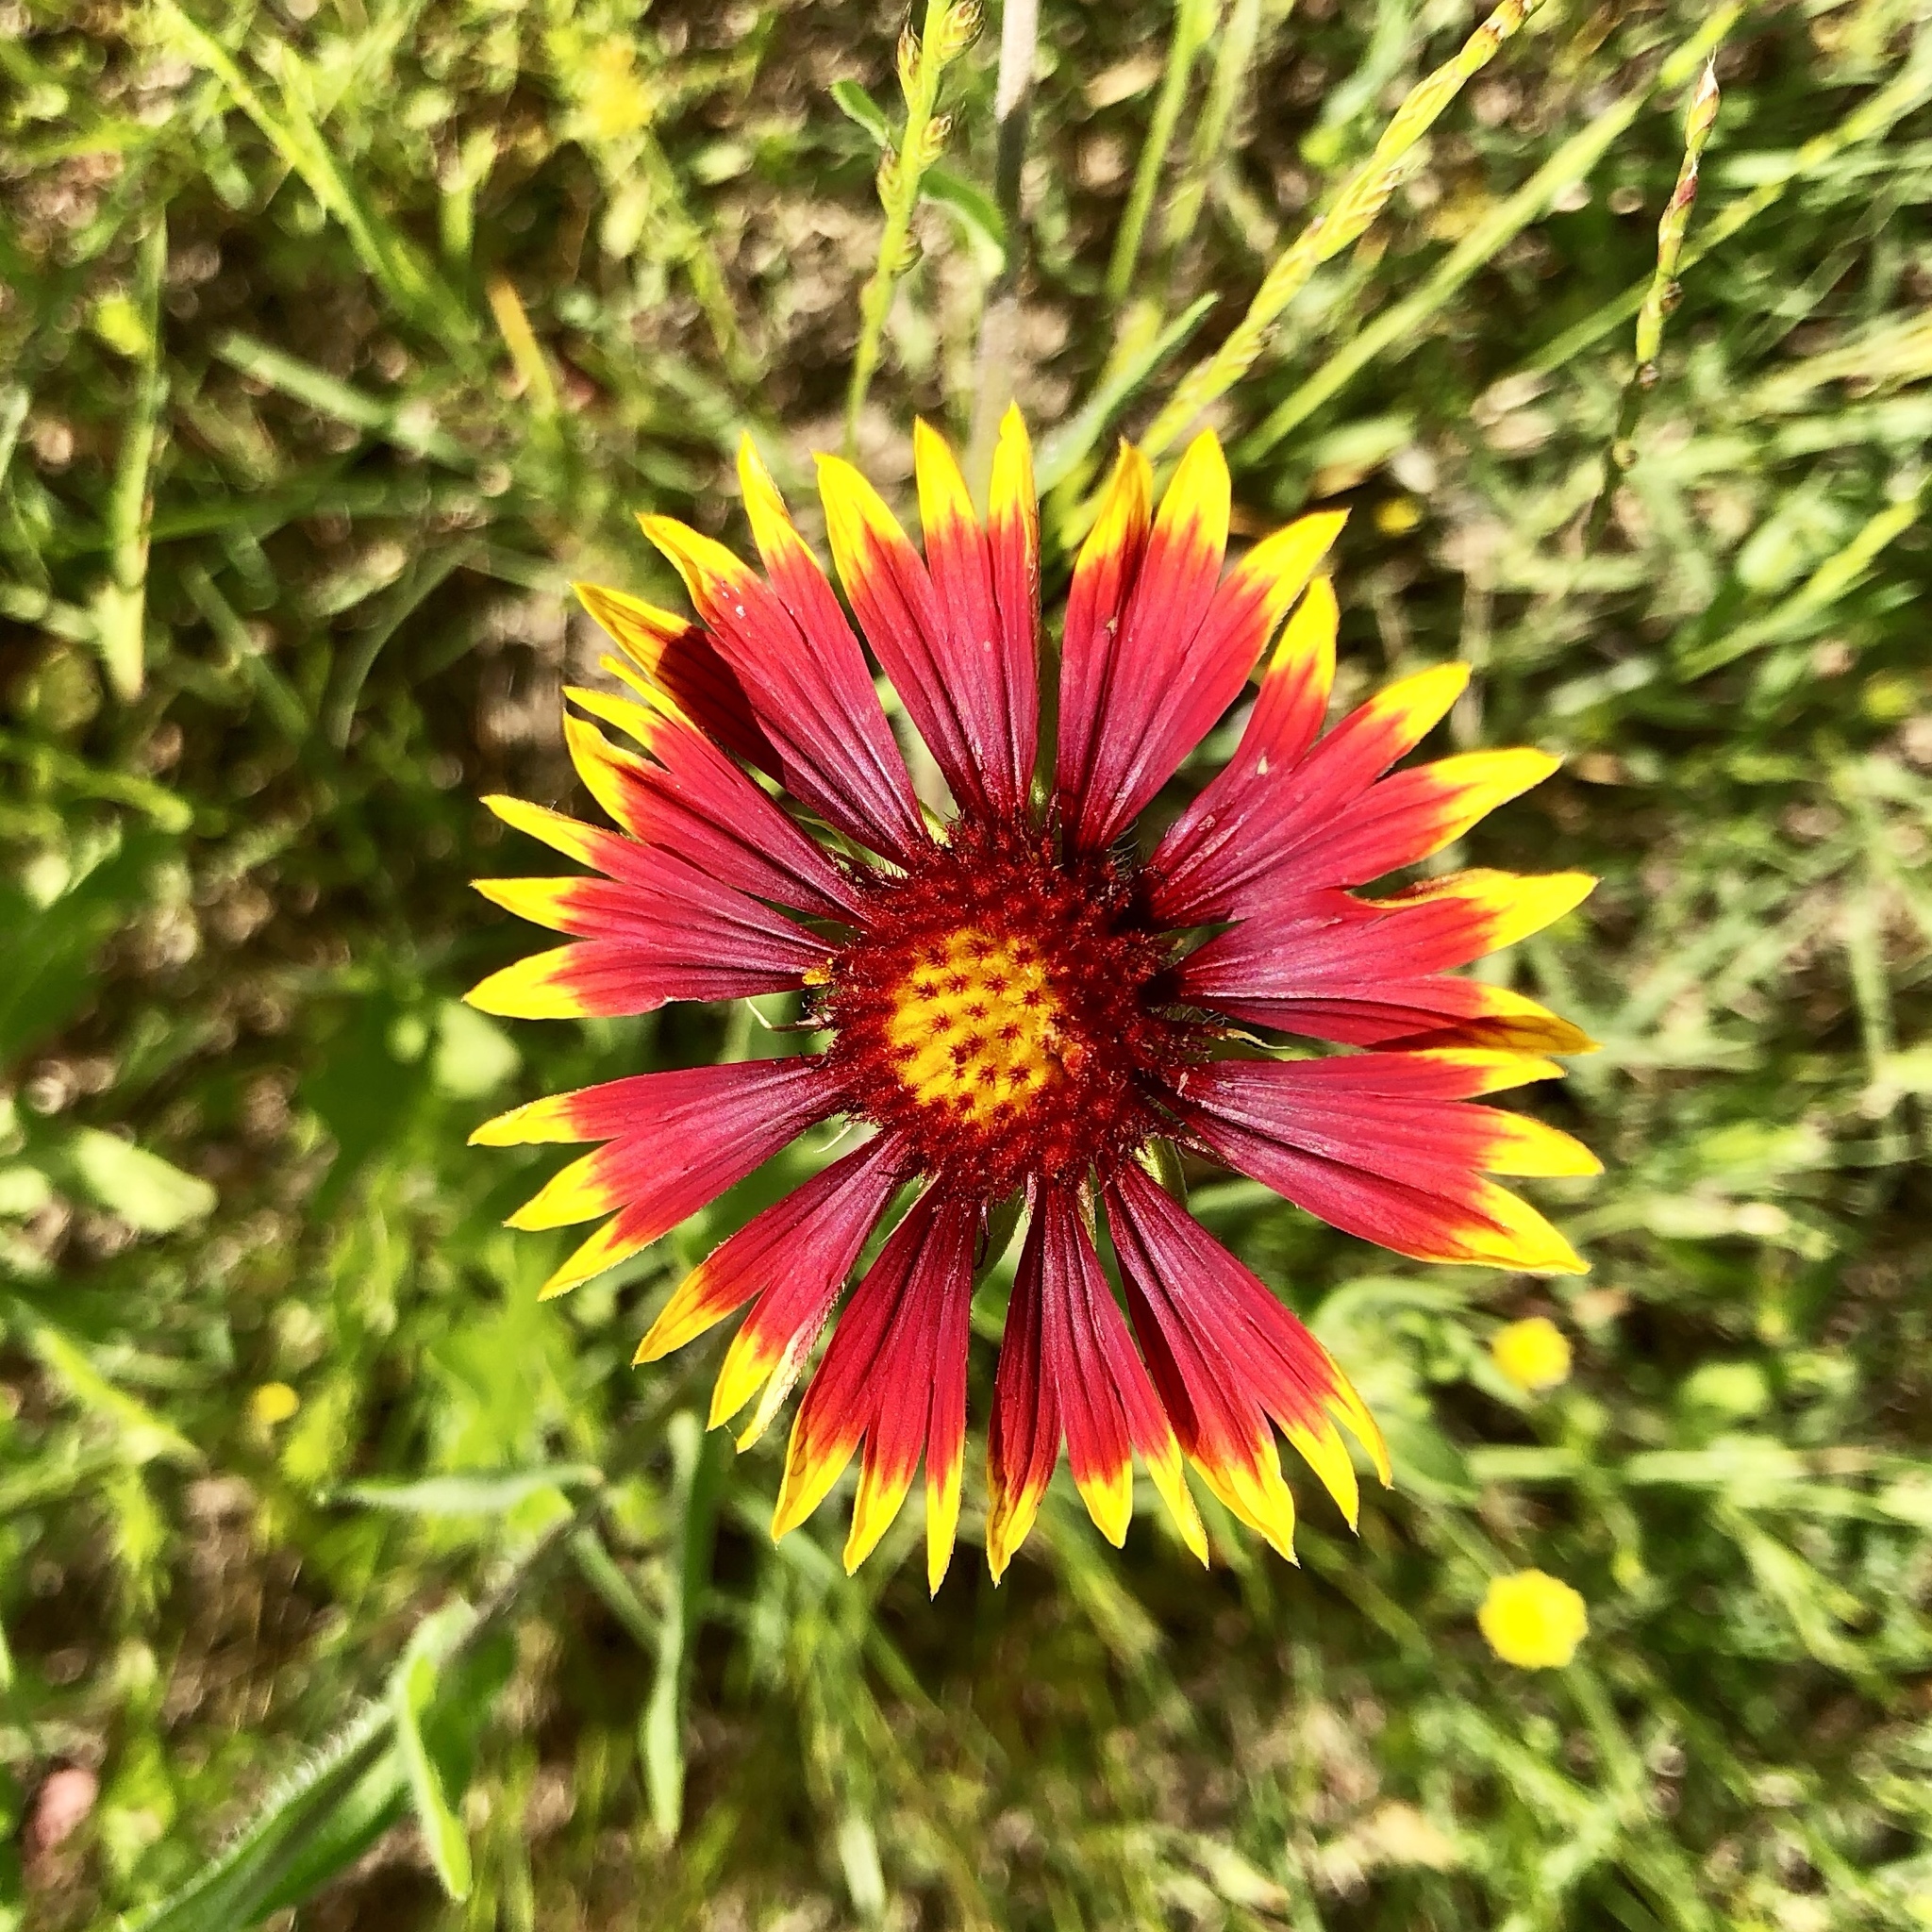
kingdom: Plantae
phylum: Tracheophyta
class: Magnoliopsida
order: Asterales
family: Asteraceae
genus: Gaillardia
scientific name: Gaillardia pulchella
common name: Firewheel
